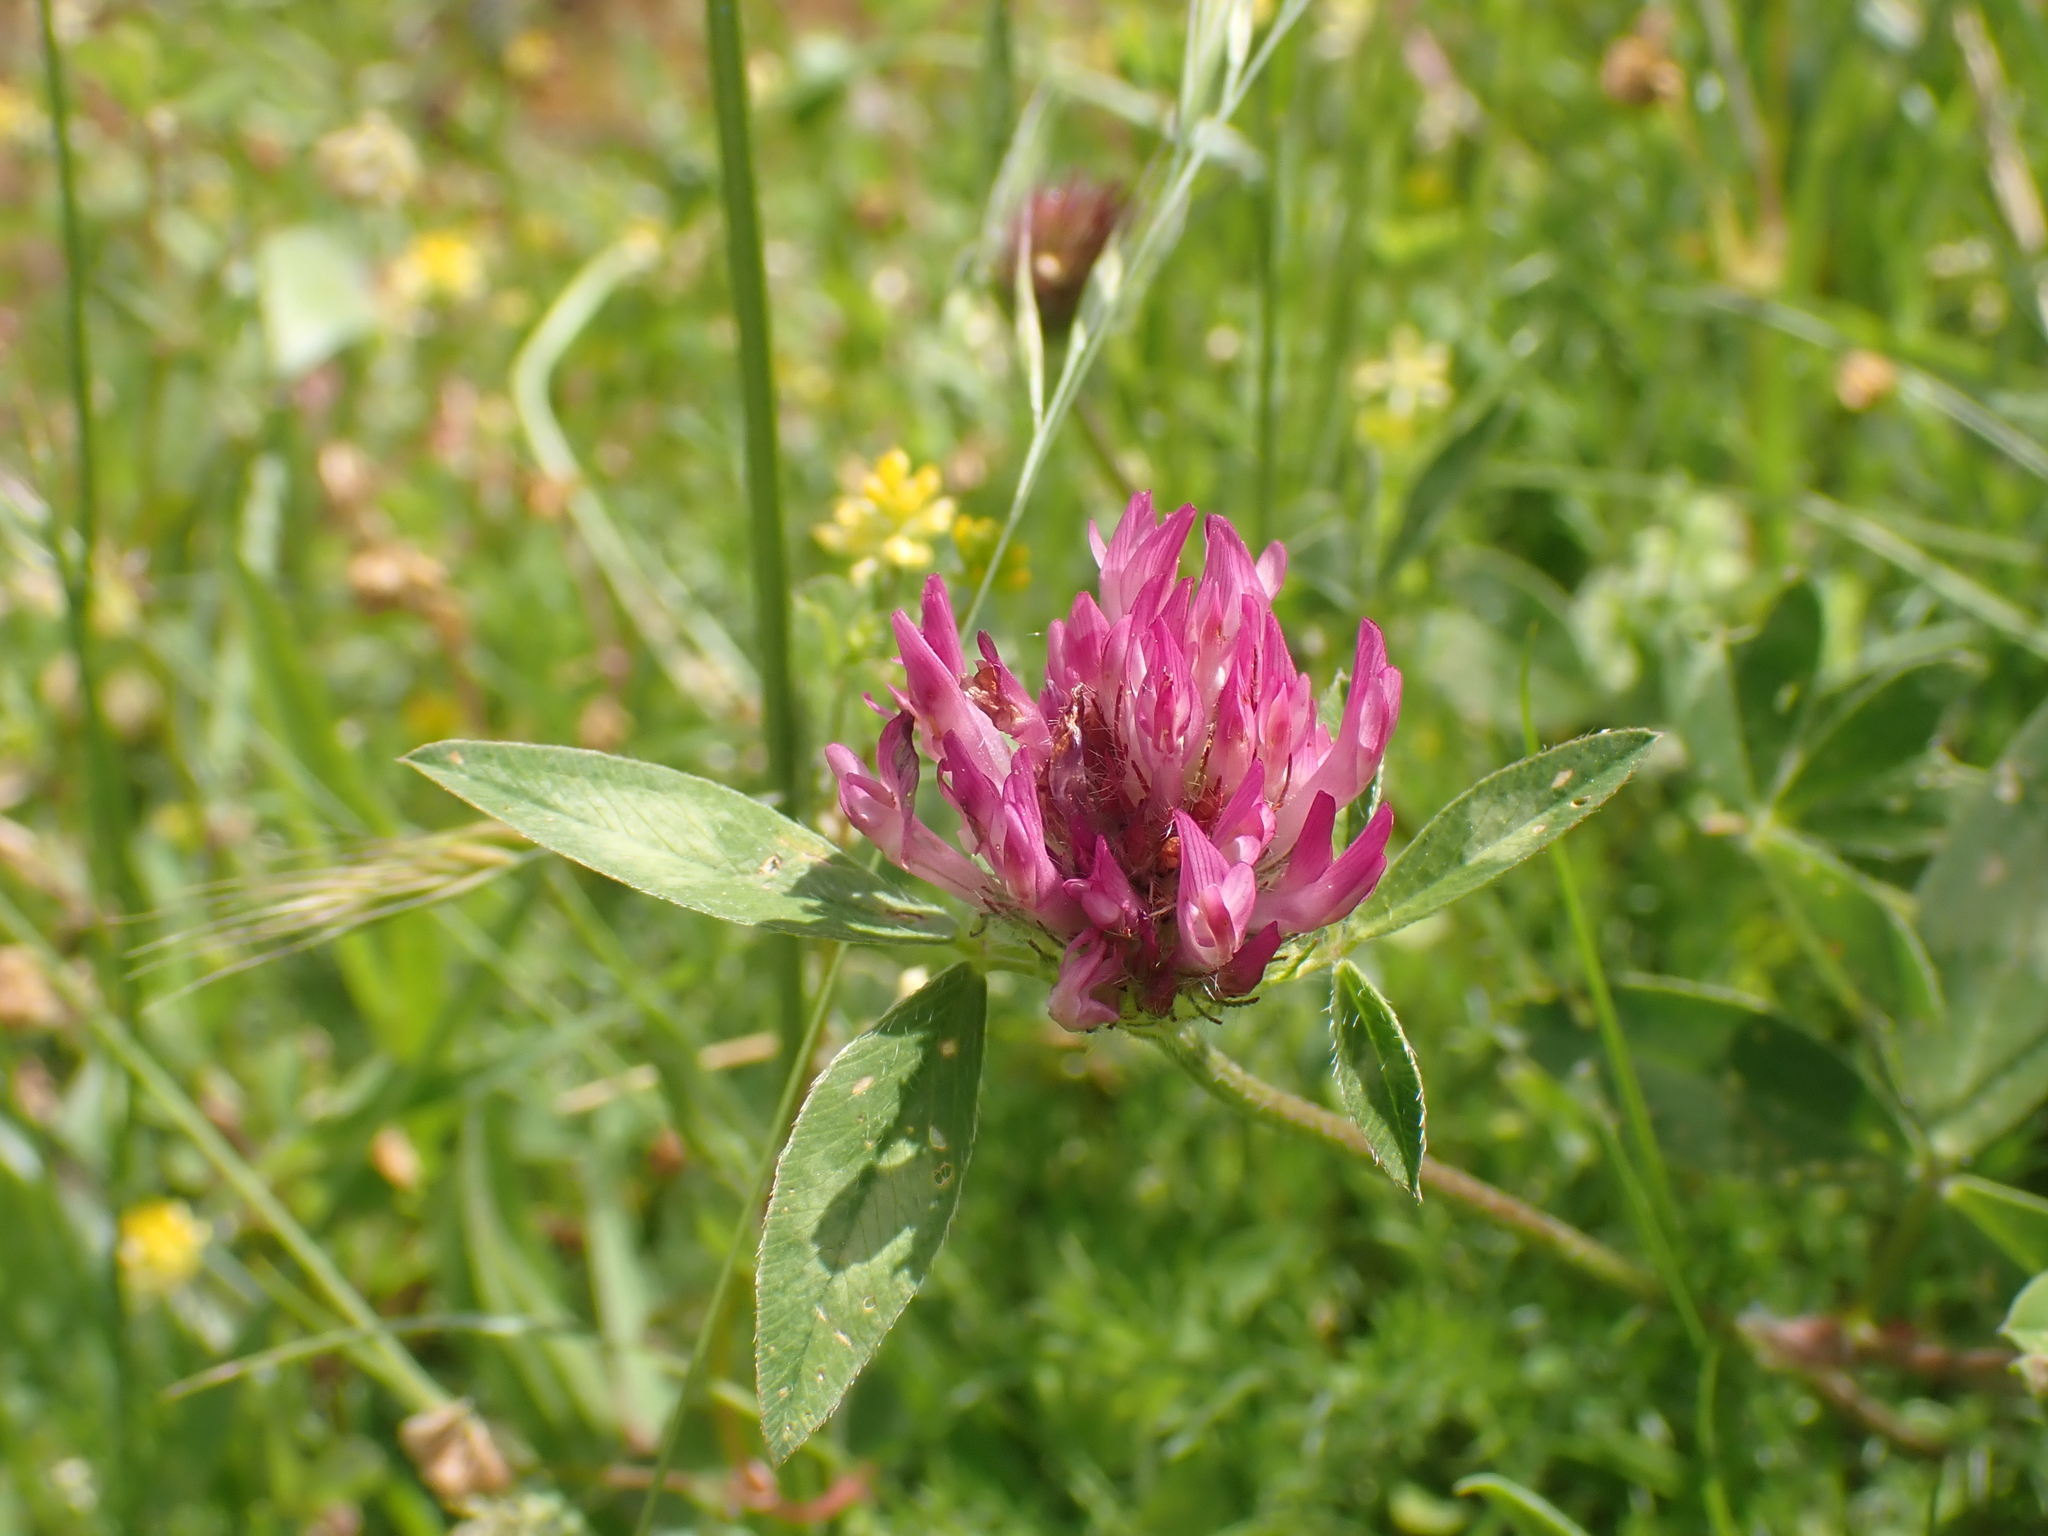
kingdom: Plantae
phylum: Tracheophyta
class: Magnoliopsida
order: Fabales
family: Fabaceae
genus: Trifolium
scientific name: Trifolium pratense
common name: Red clover
